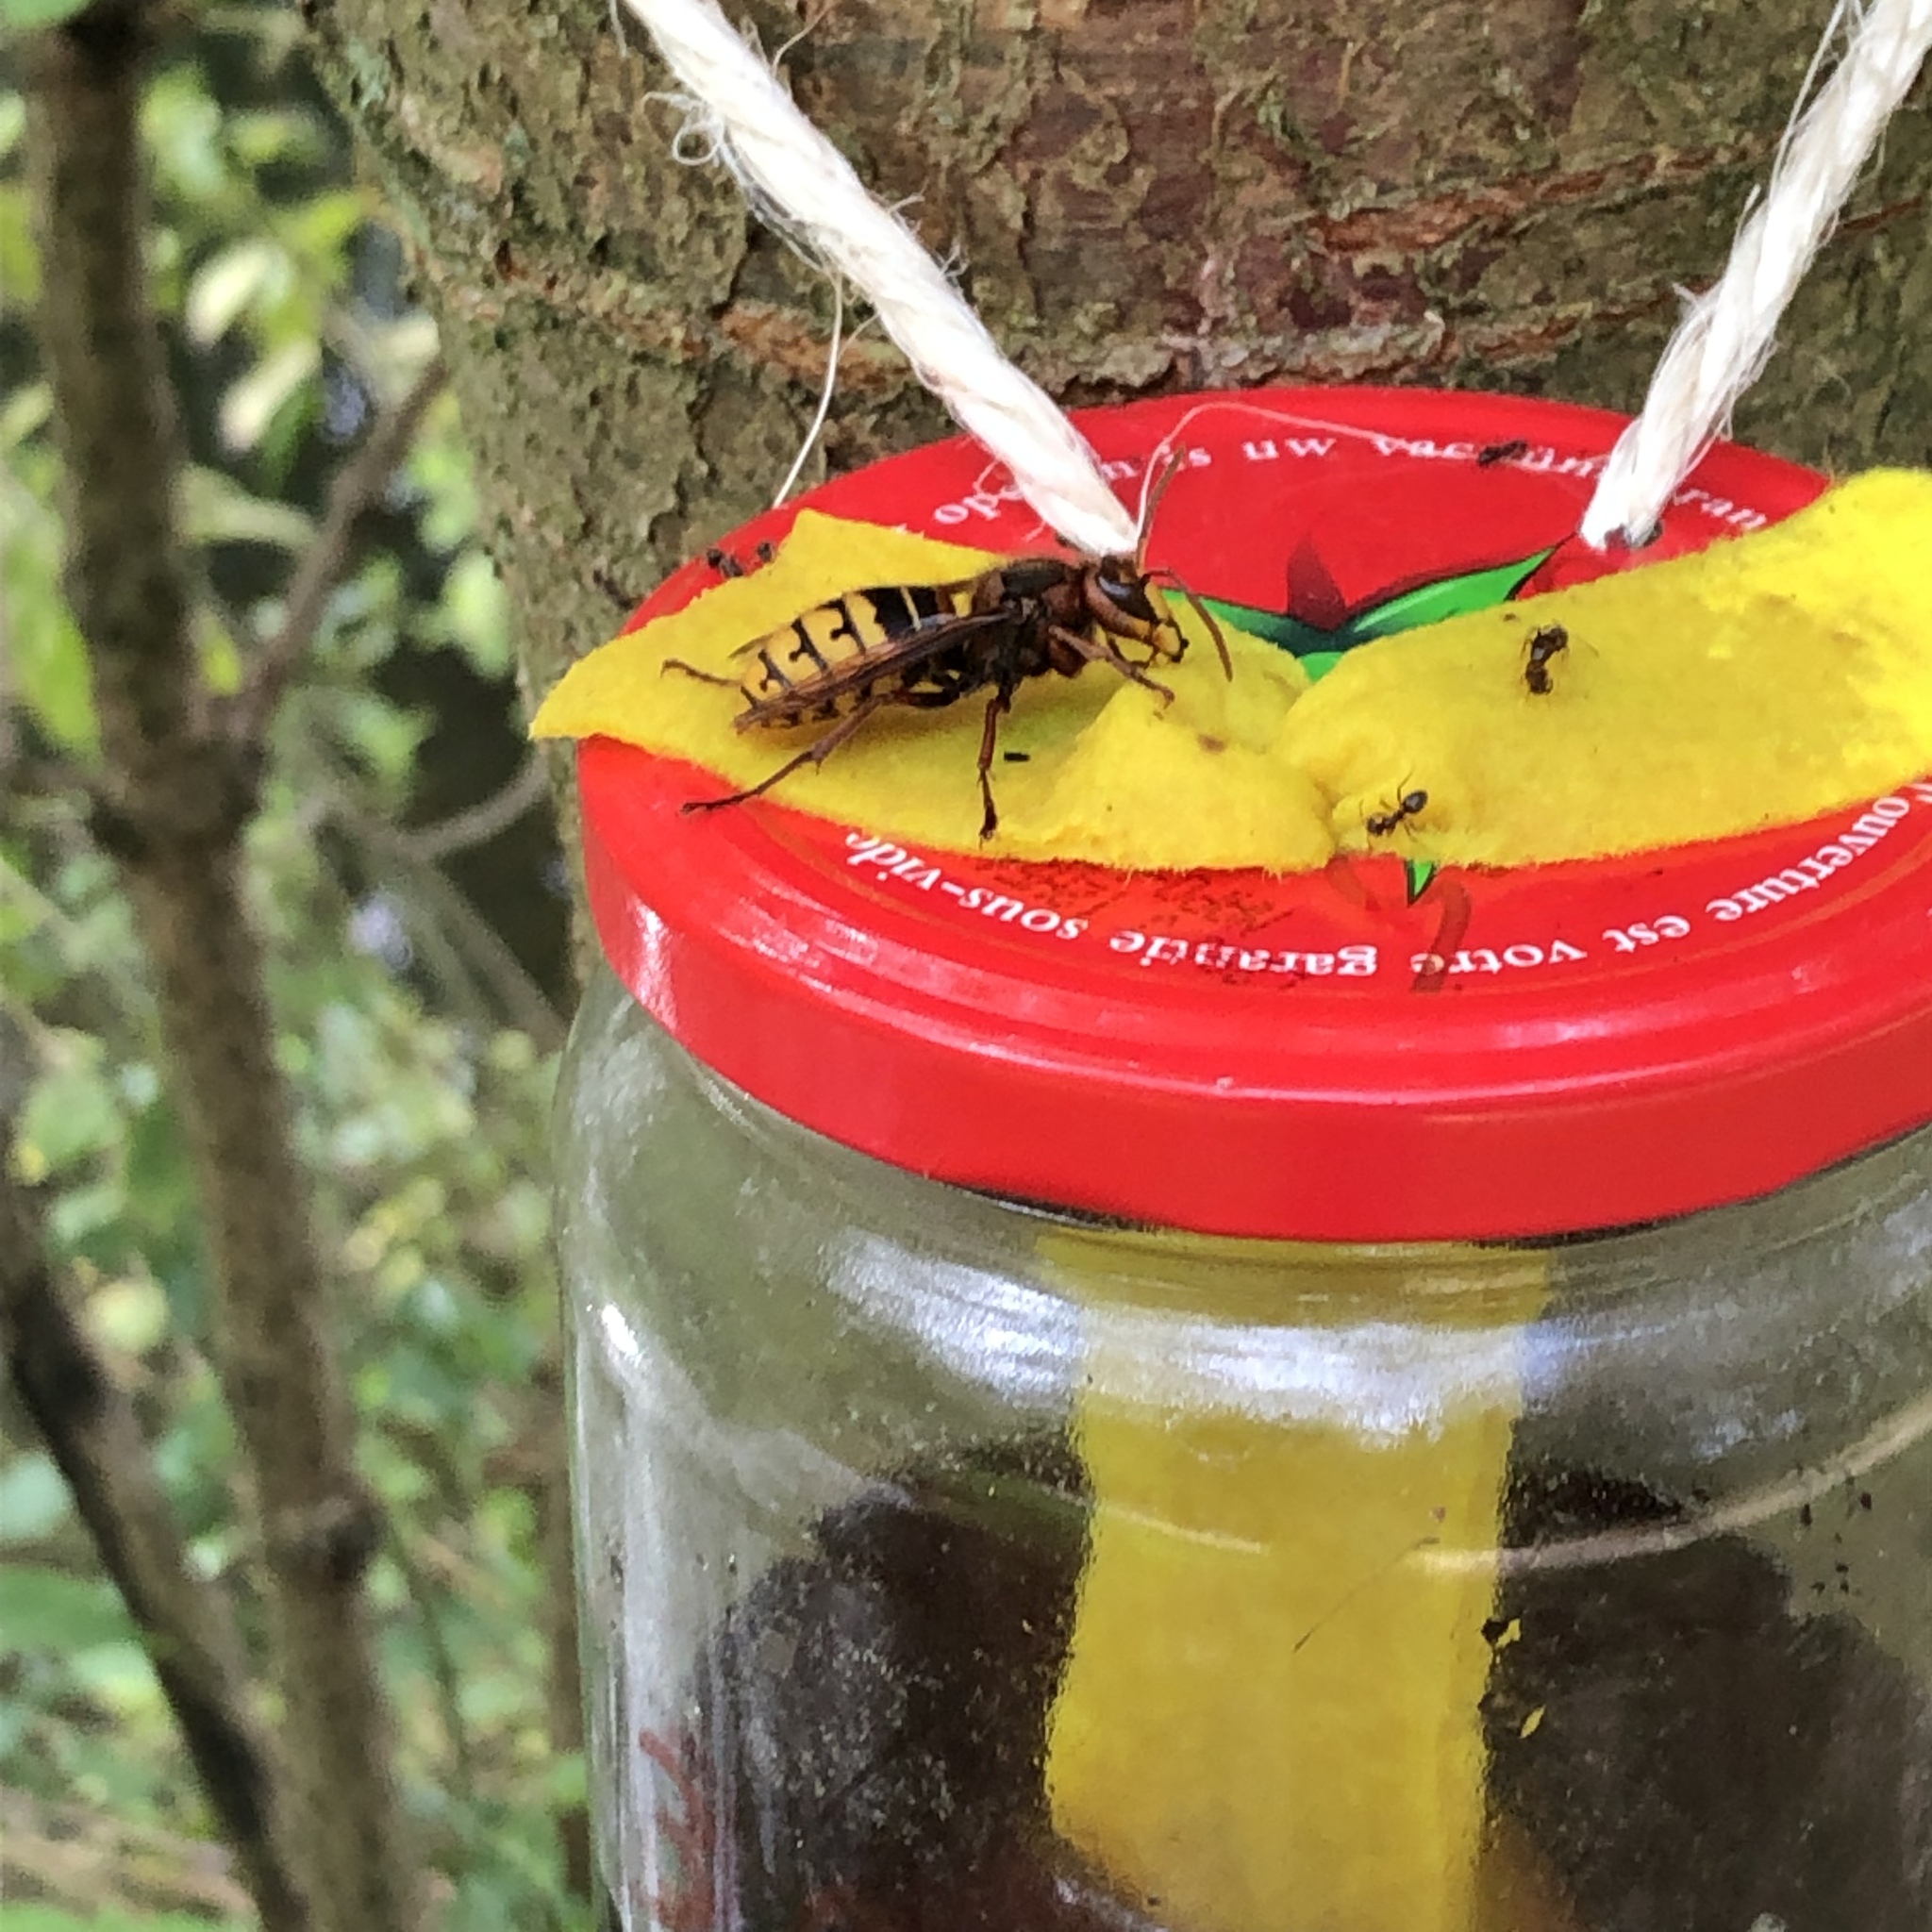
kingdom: Animalia
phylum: Arthropoda
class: Insecta
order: Hymenoptera
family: Vespidae
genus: Vespa
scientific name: Vespa crabro
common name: Hornet
